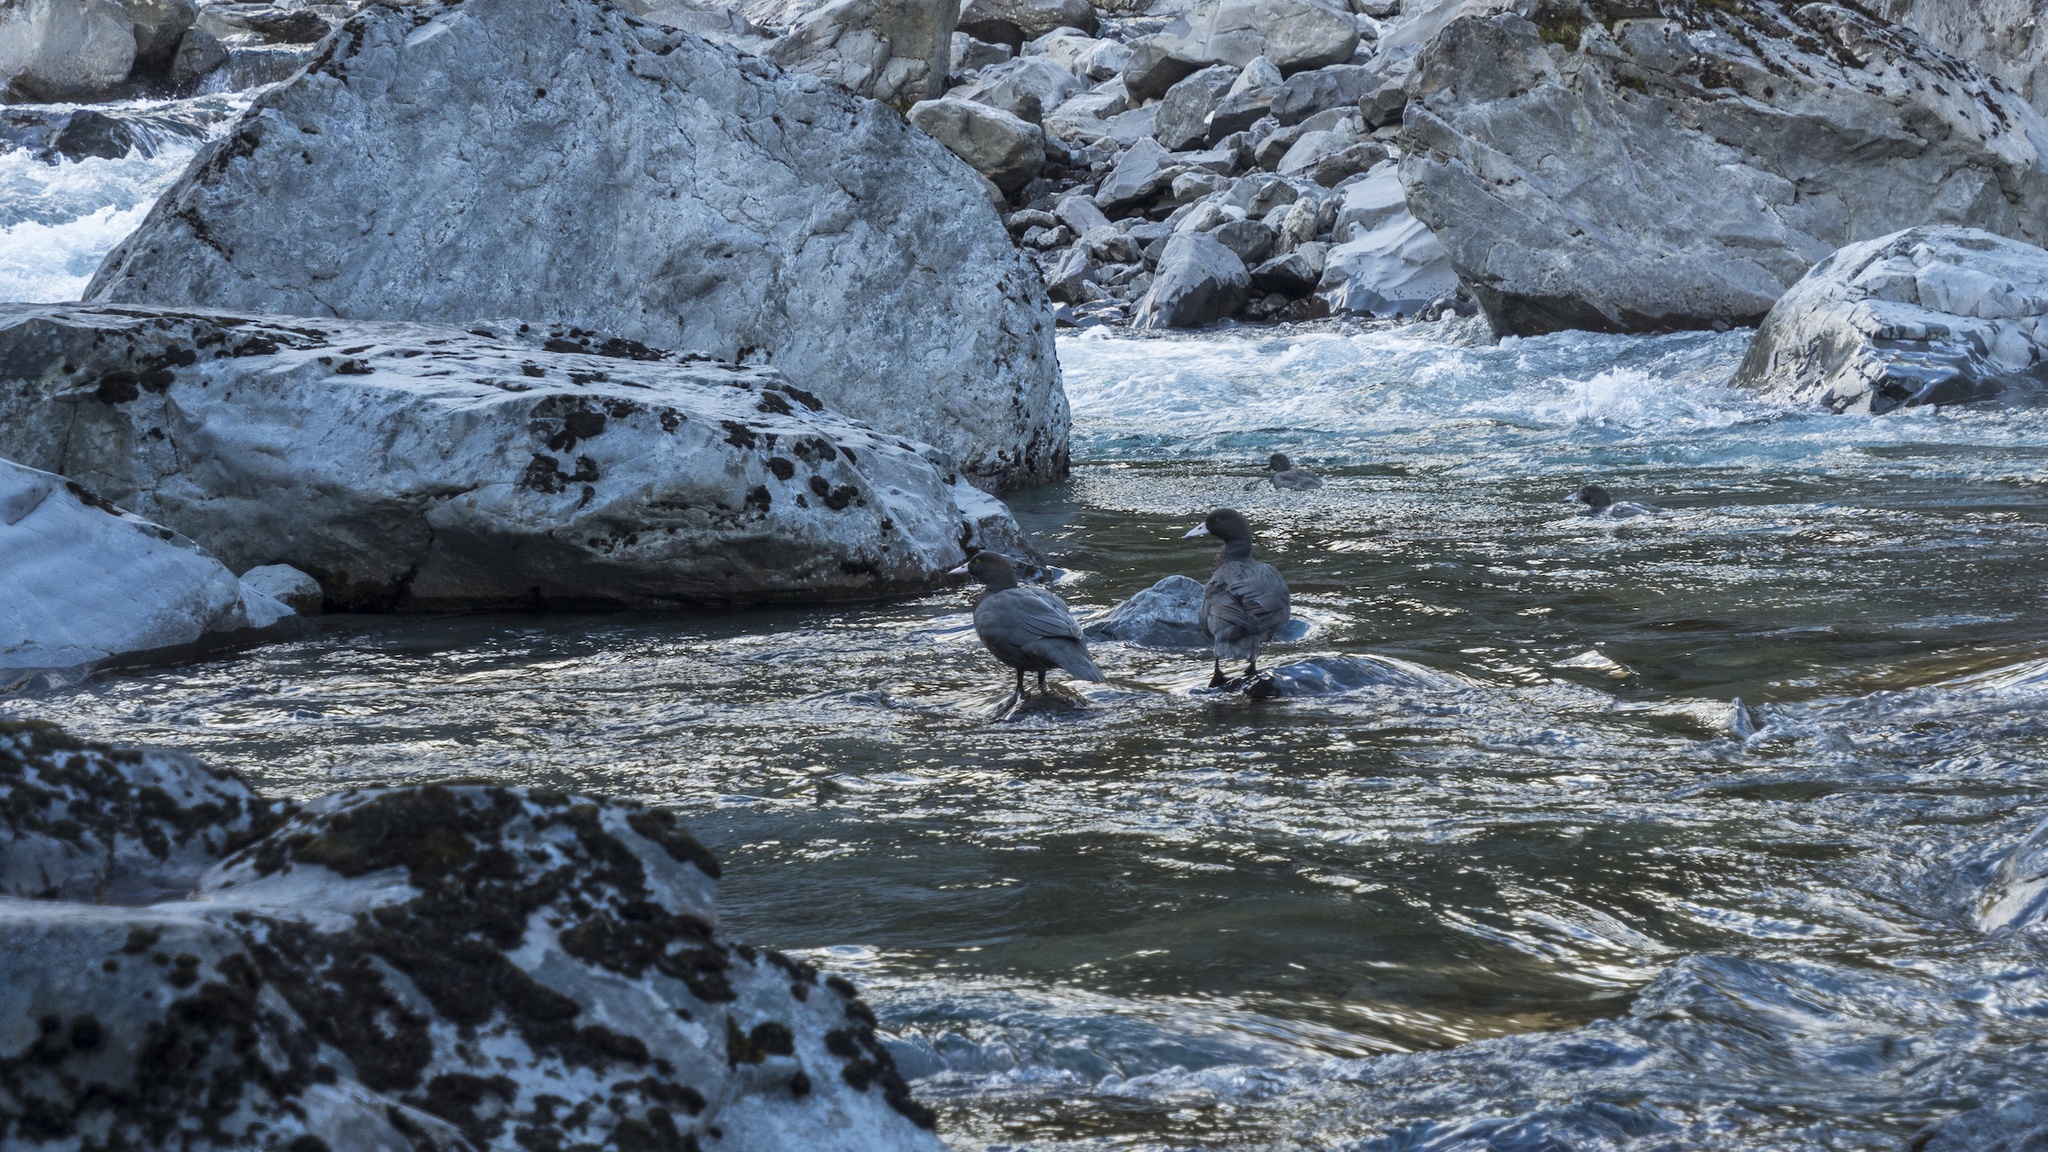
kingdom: Animalia
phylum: Chordata
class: Aves
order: Anseriformes
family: Anatidae
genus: Hymenolaimus
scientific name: Hymenolaimus malacorhynchos
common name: Blue duck
